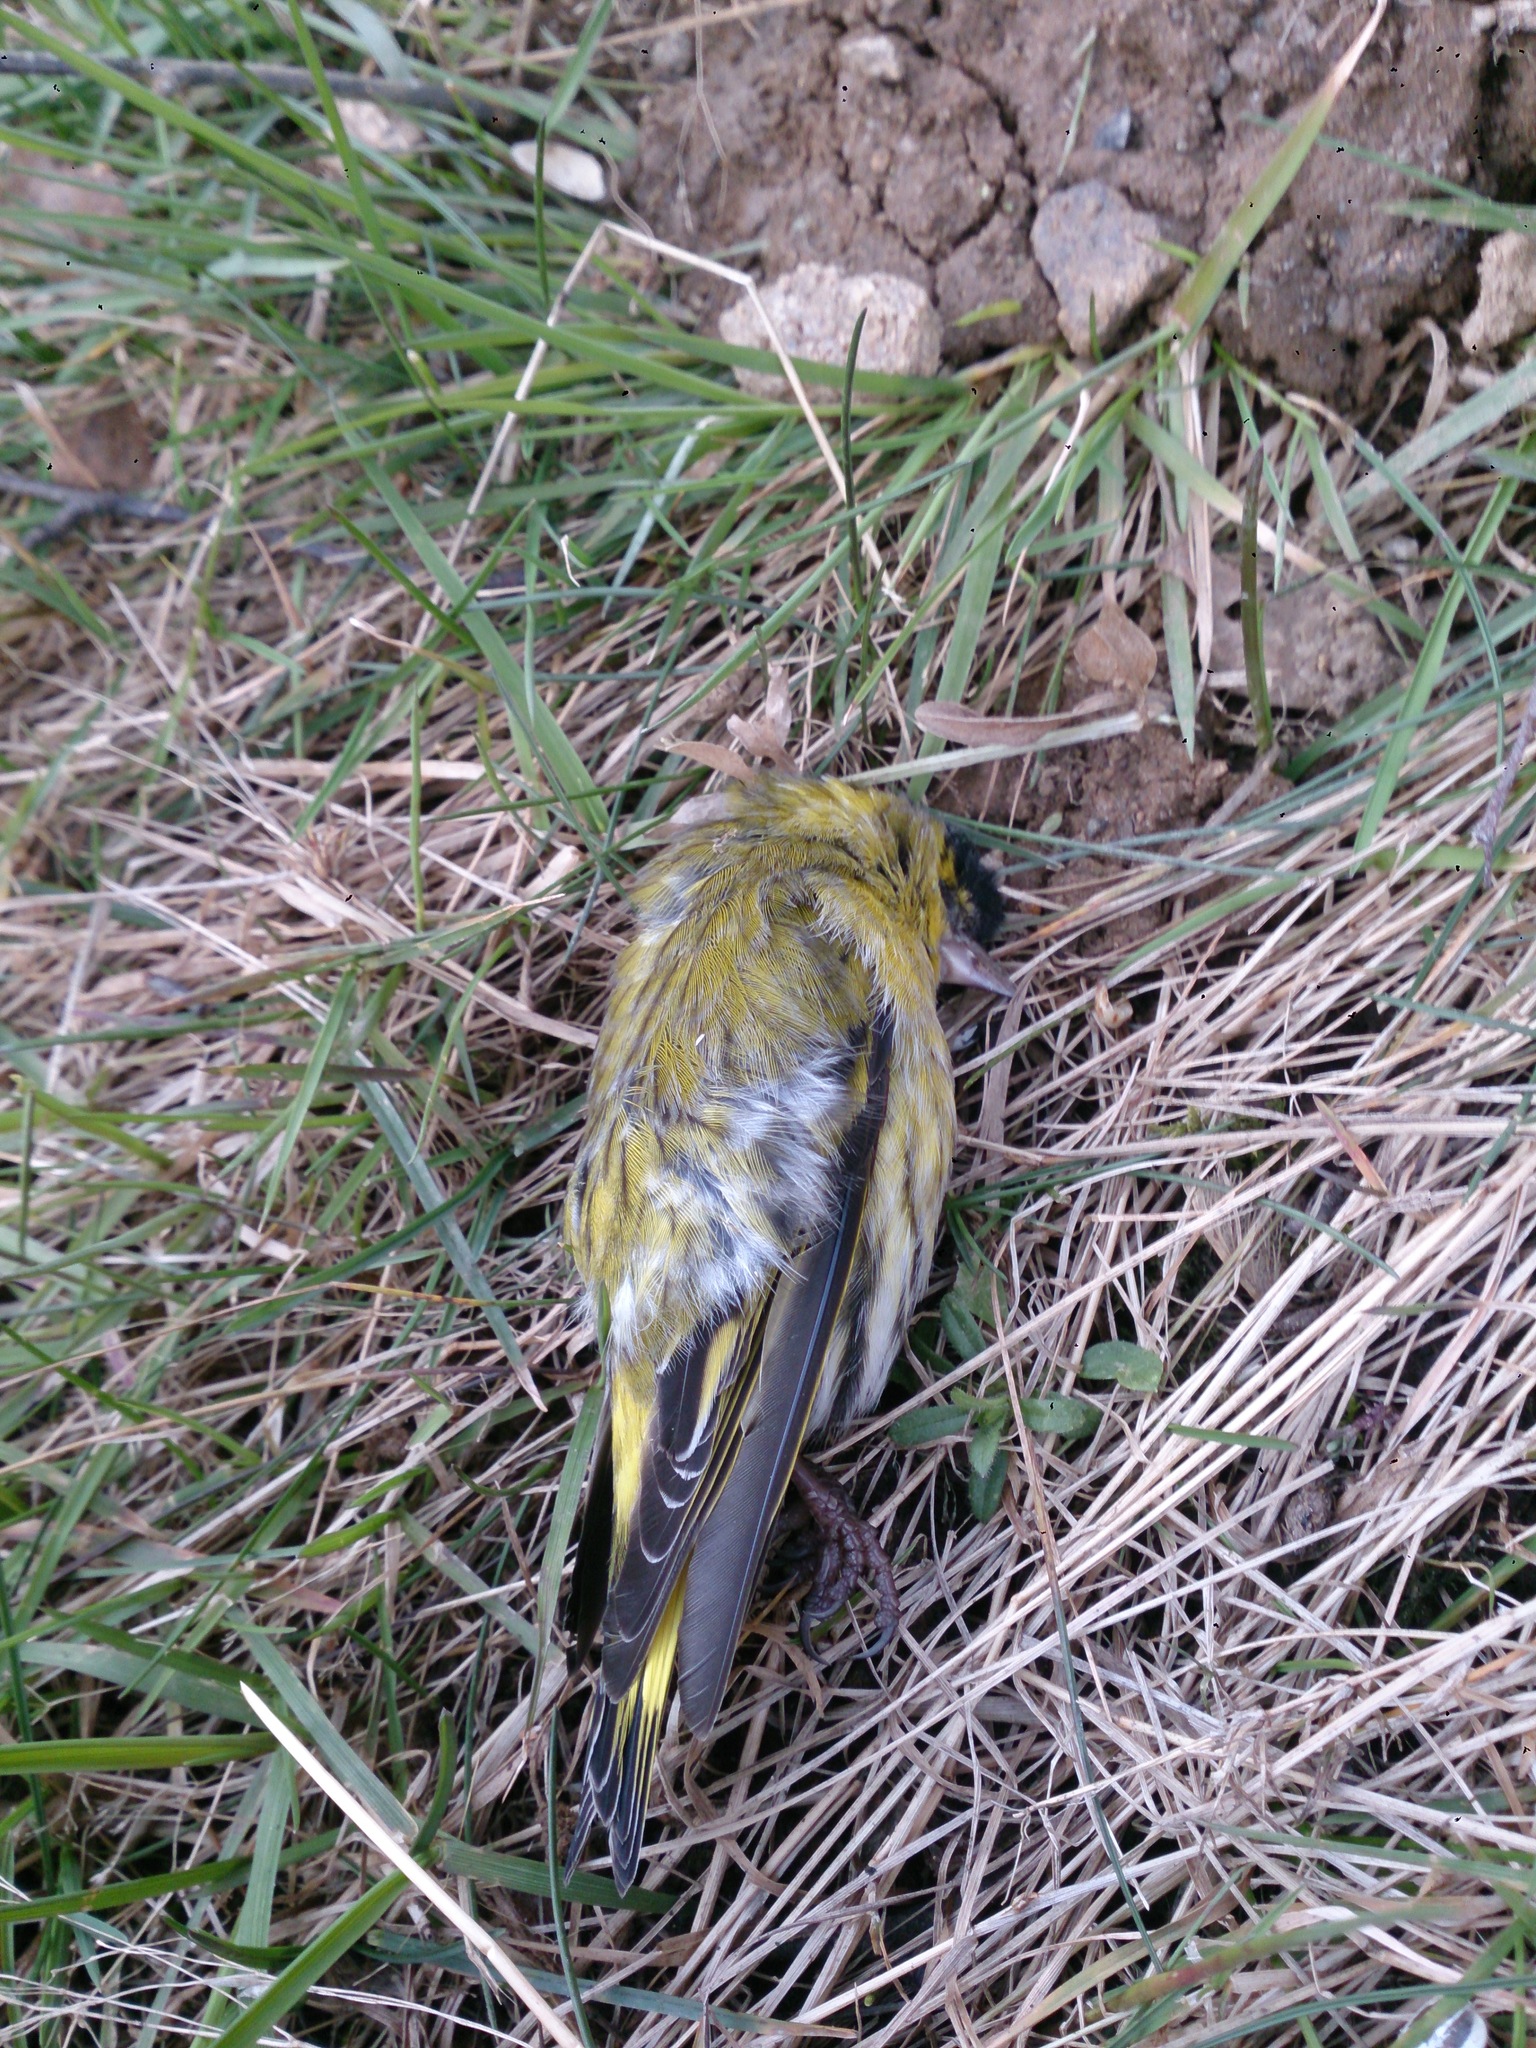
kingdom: Animalia
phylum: Chordata
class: Aves
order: Passeriformes
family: Fringillidae
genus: Spinus
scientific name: Spinus spinus
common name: Eurasian siskin
